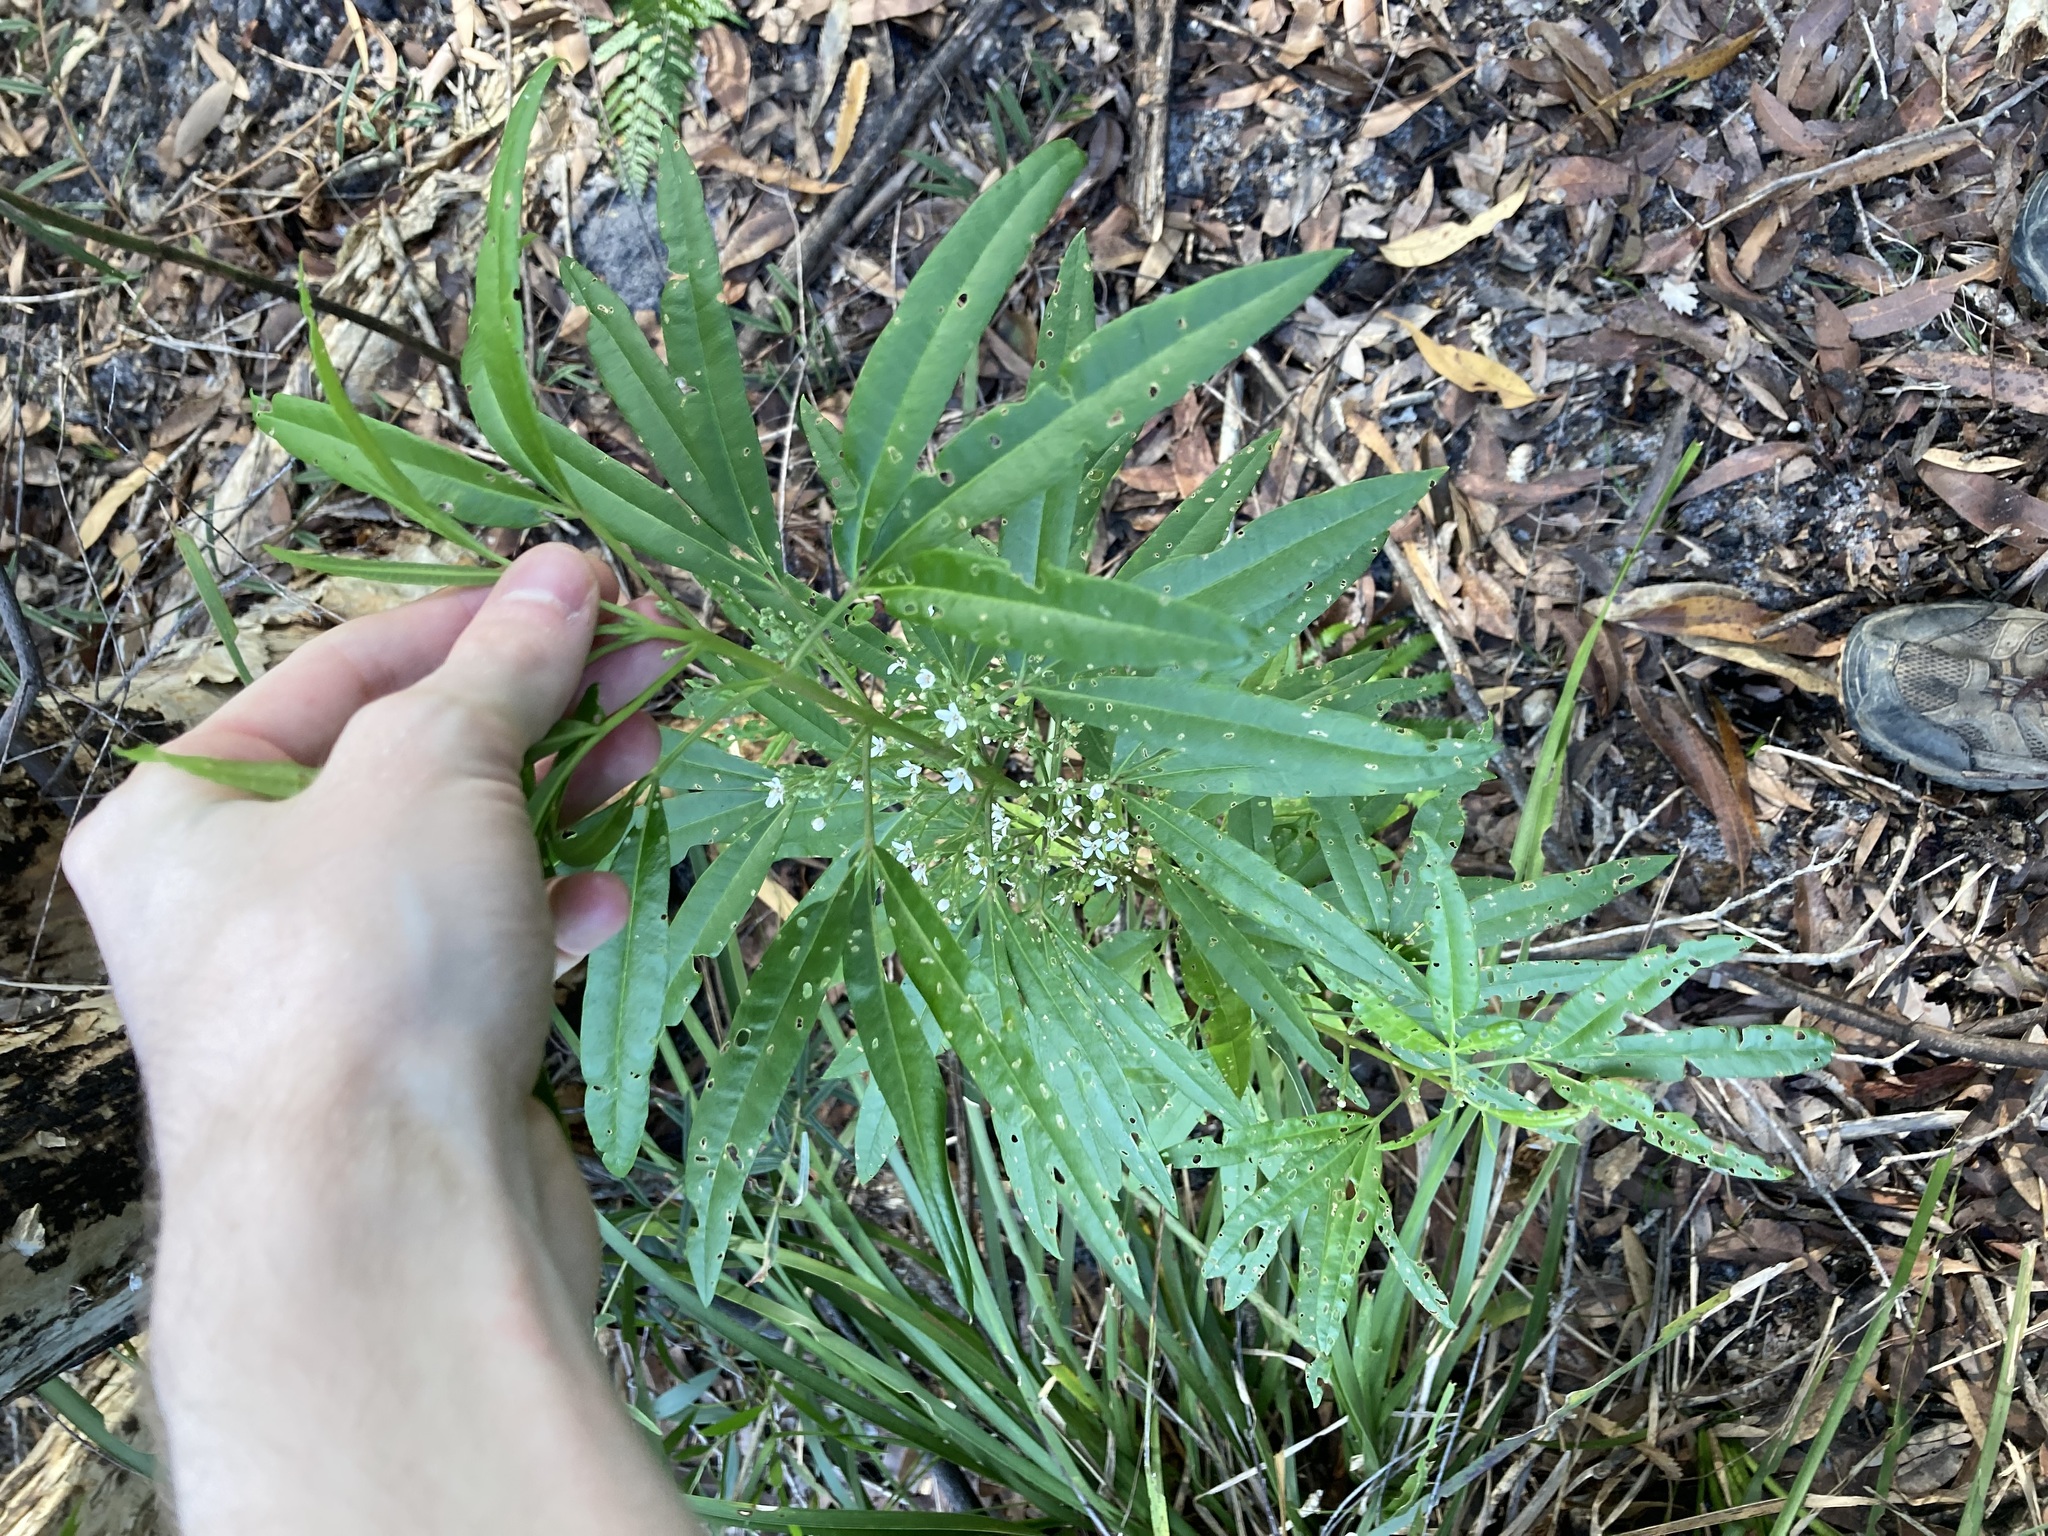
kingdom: Plantae
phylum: Tracheophyta
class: Magnoliopsida
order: Sapindales
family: Rutaceae
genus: Zieria
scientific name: Zieria arborescens
